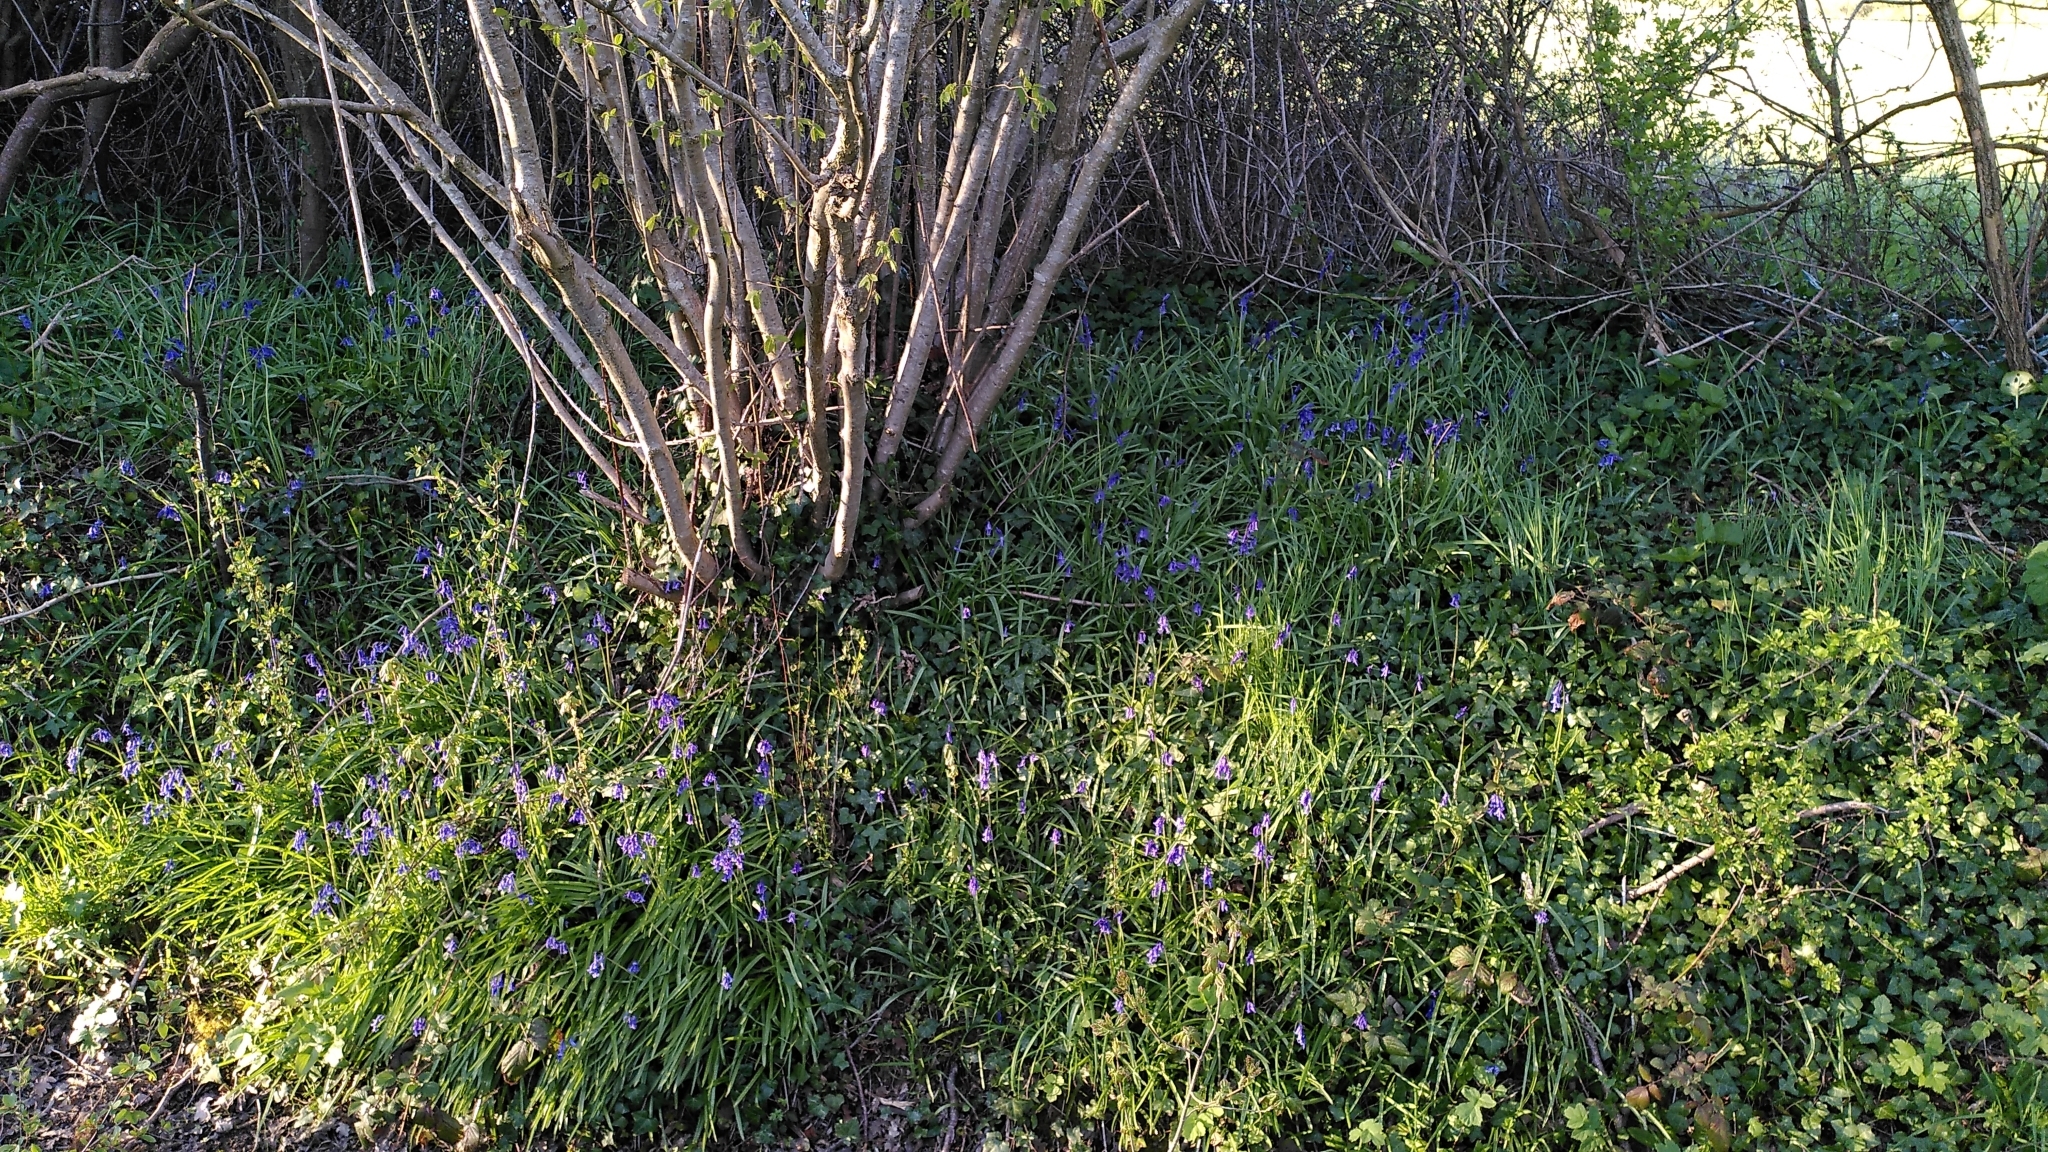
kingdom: Plantae
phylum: Tracheophyta
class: Liliopsida
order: Asparagales
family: Asparagaceae
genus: Hyacinthoides
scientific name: Hyacinthoides non-scripta
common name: Bluebell
